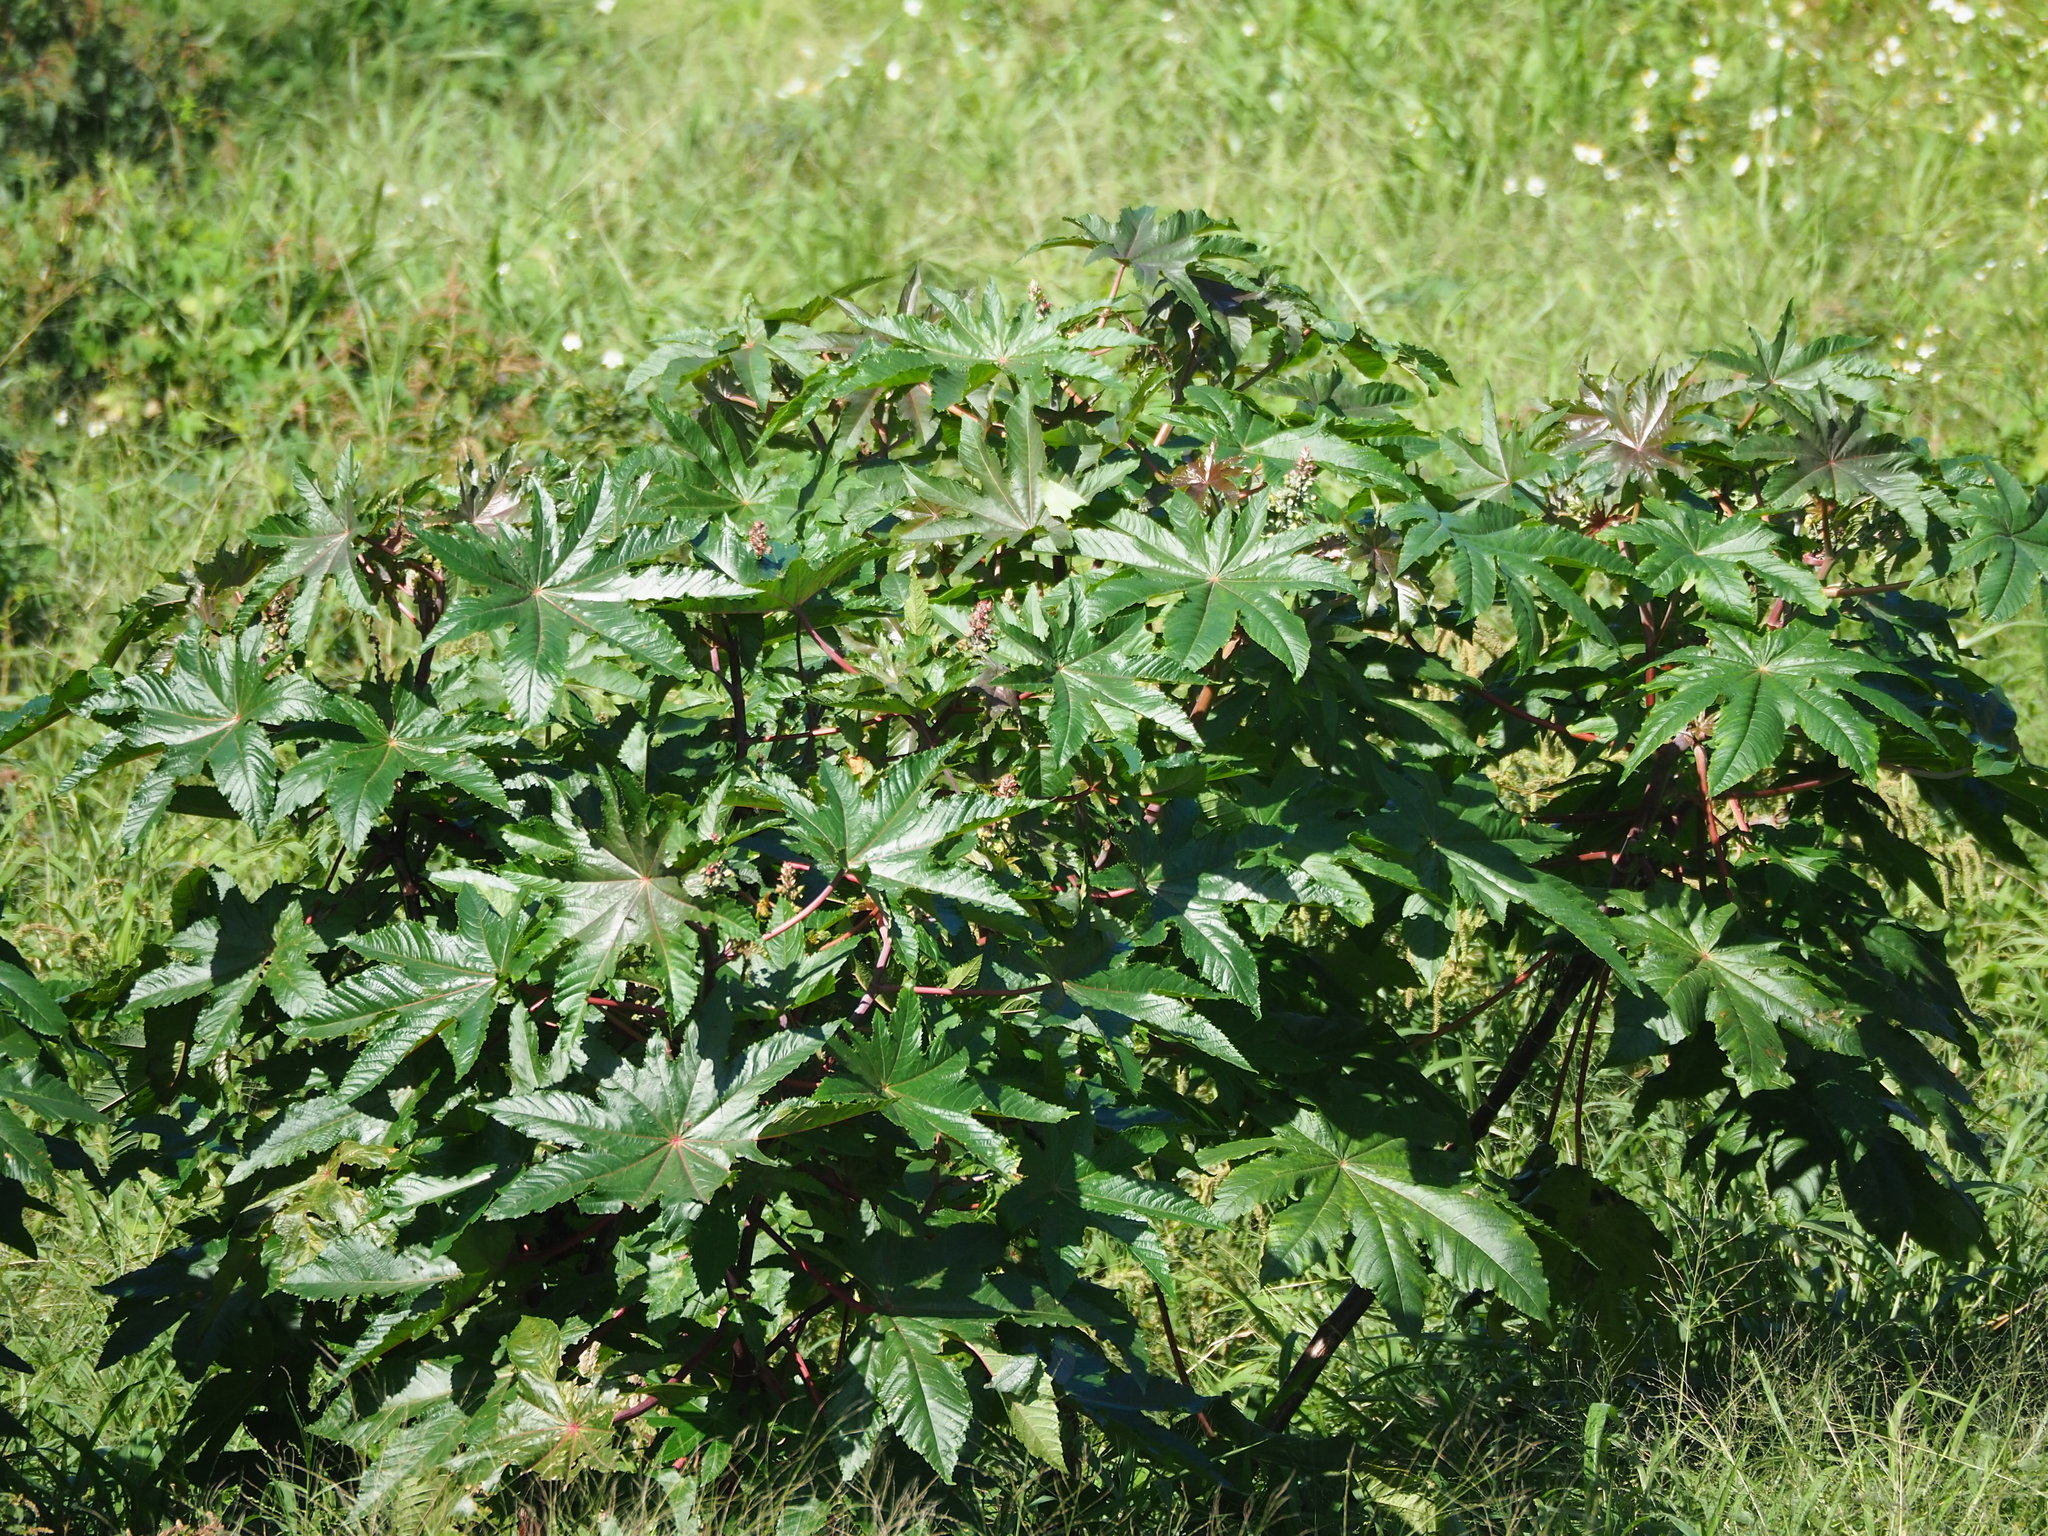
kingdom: Plantae
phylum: Tracheophyta
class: Magnoliopsida
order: Malpighiales
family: Euphorbiaceae
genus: Ricinus
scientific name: Ricinus communis
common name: Castor-oil-plant
